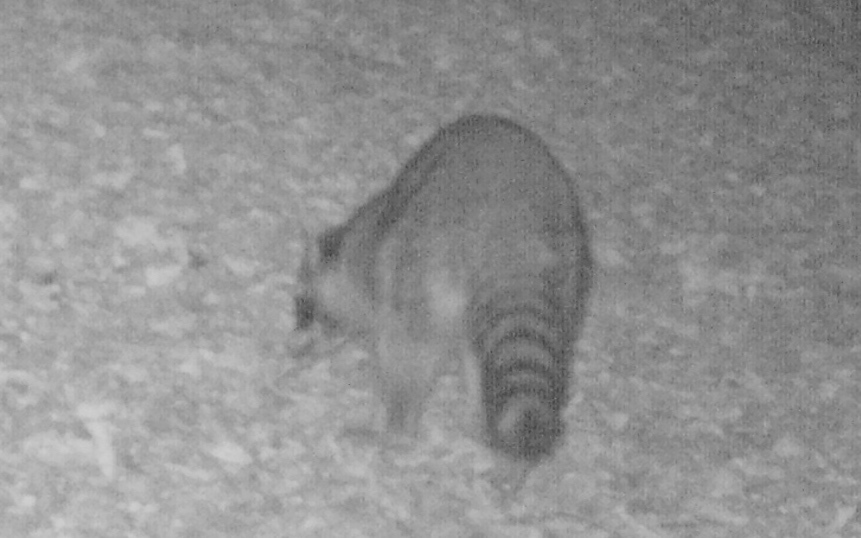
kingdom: Animalia
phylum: Chordata
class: Mammalia
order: Carnivora
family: Procyonidae
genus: Procyon
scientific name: Procyon lotor
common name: Raccoon
